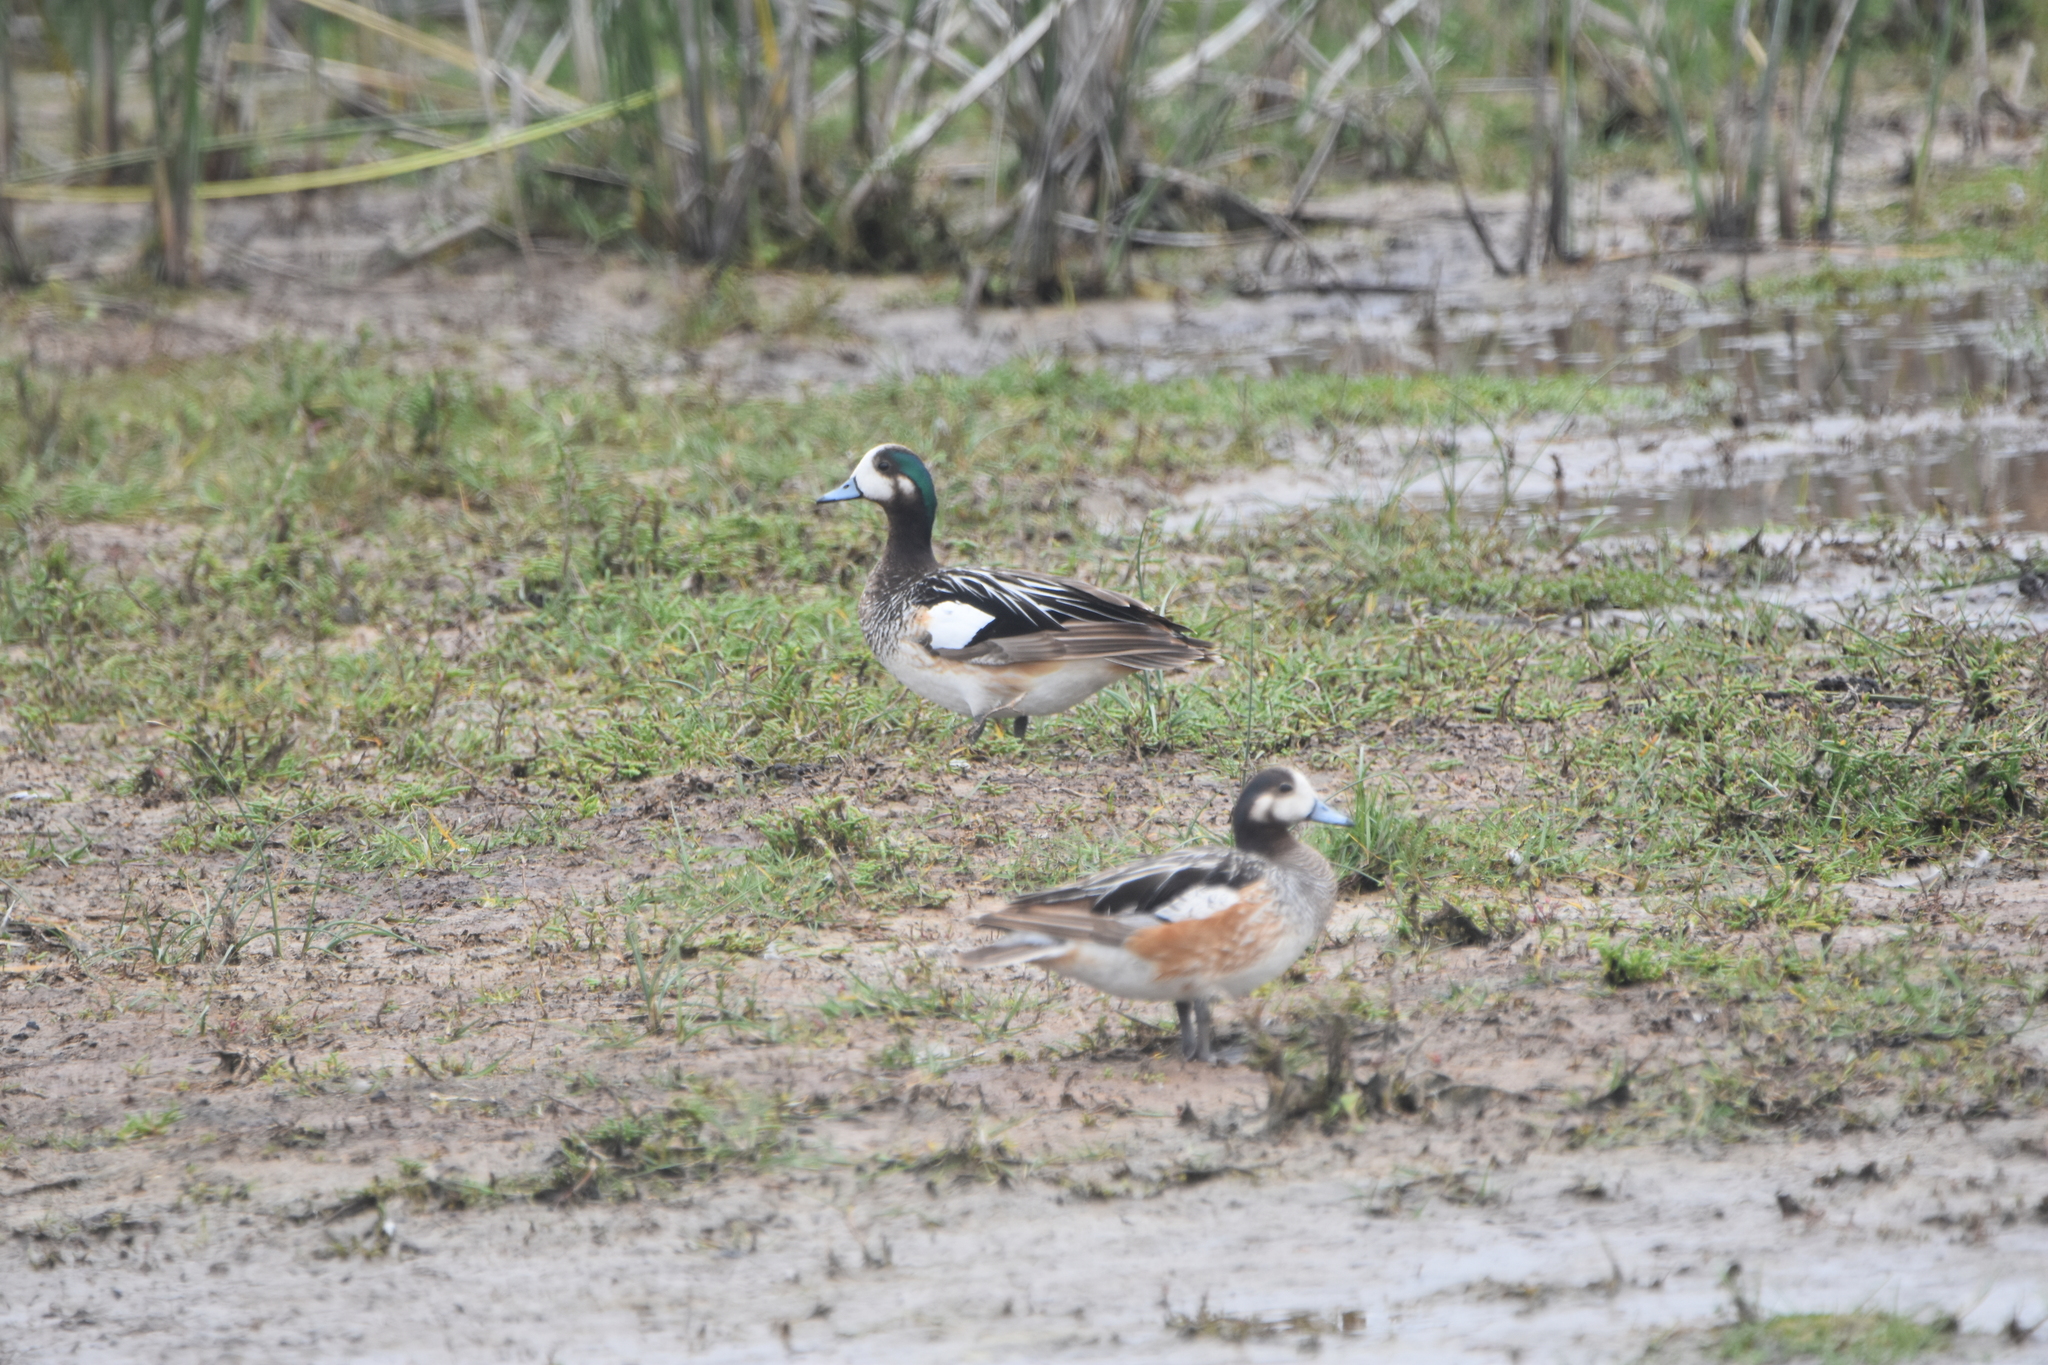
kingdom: Animalia
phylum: Chordata
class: Aves
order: Anseriformes
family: Anatidae
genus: Mareca
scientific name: Mareca sibilatrix
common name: Chiloe wigeon
